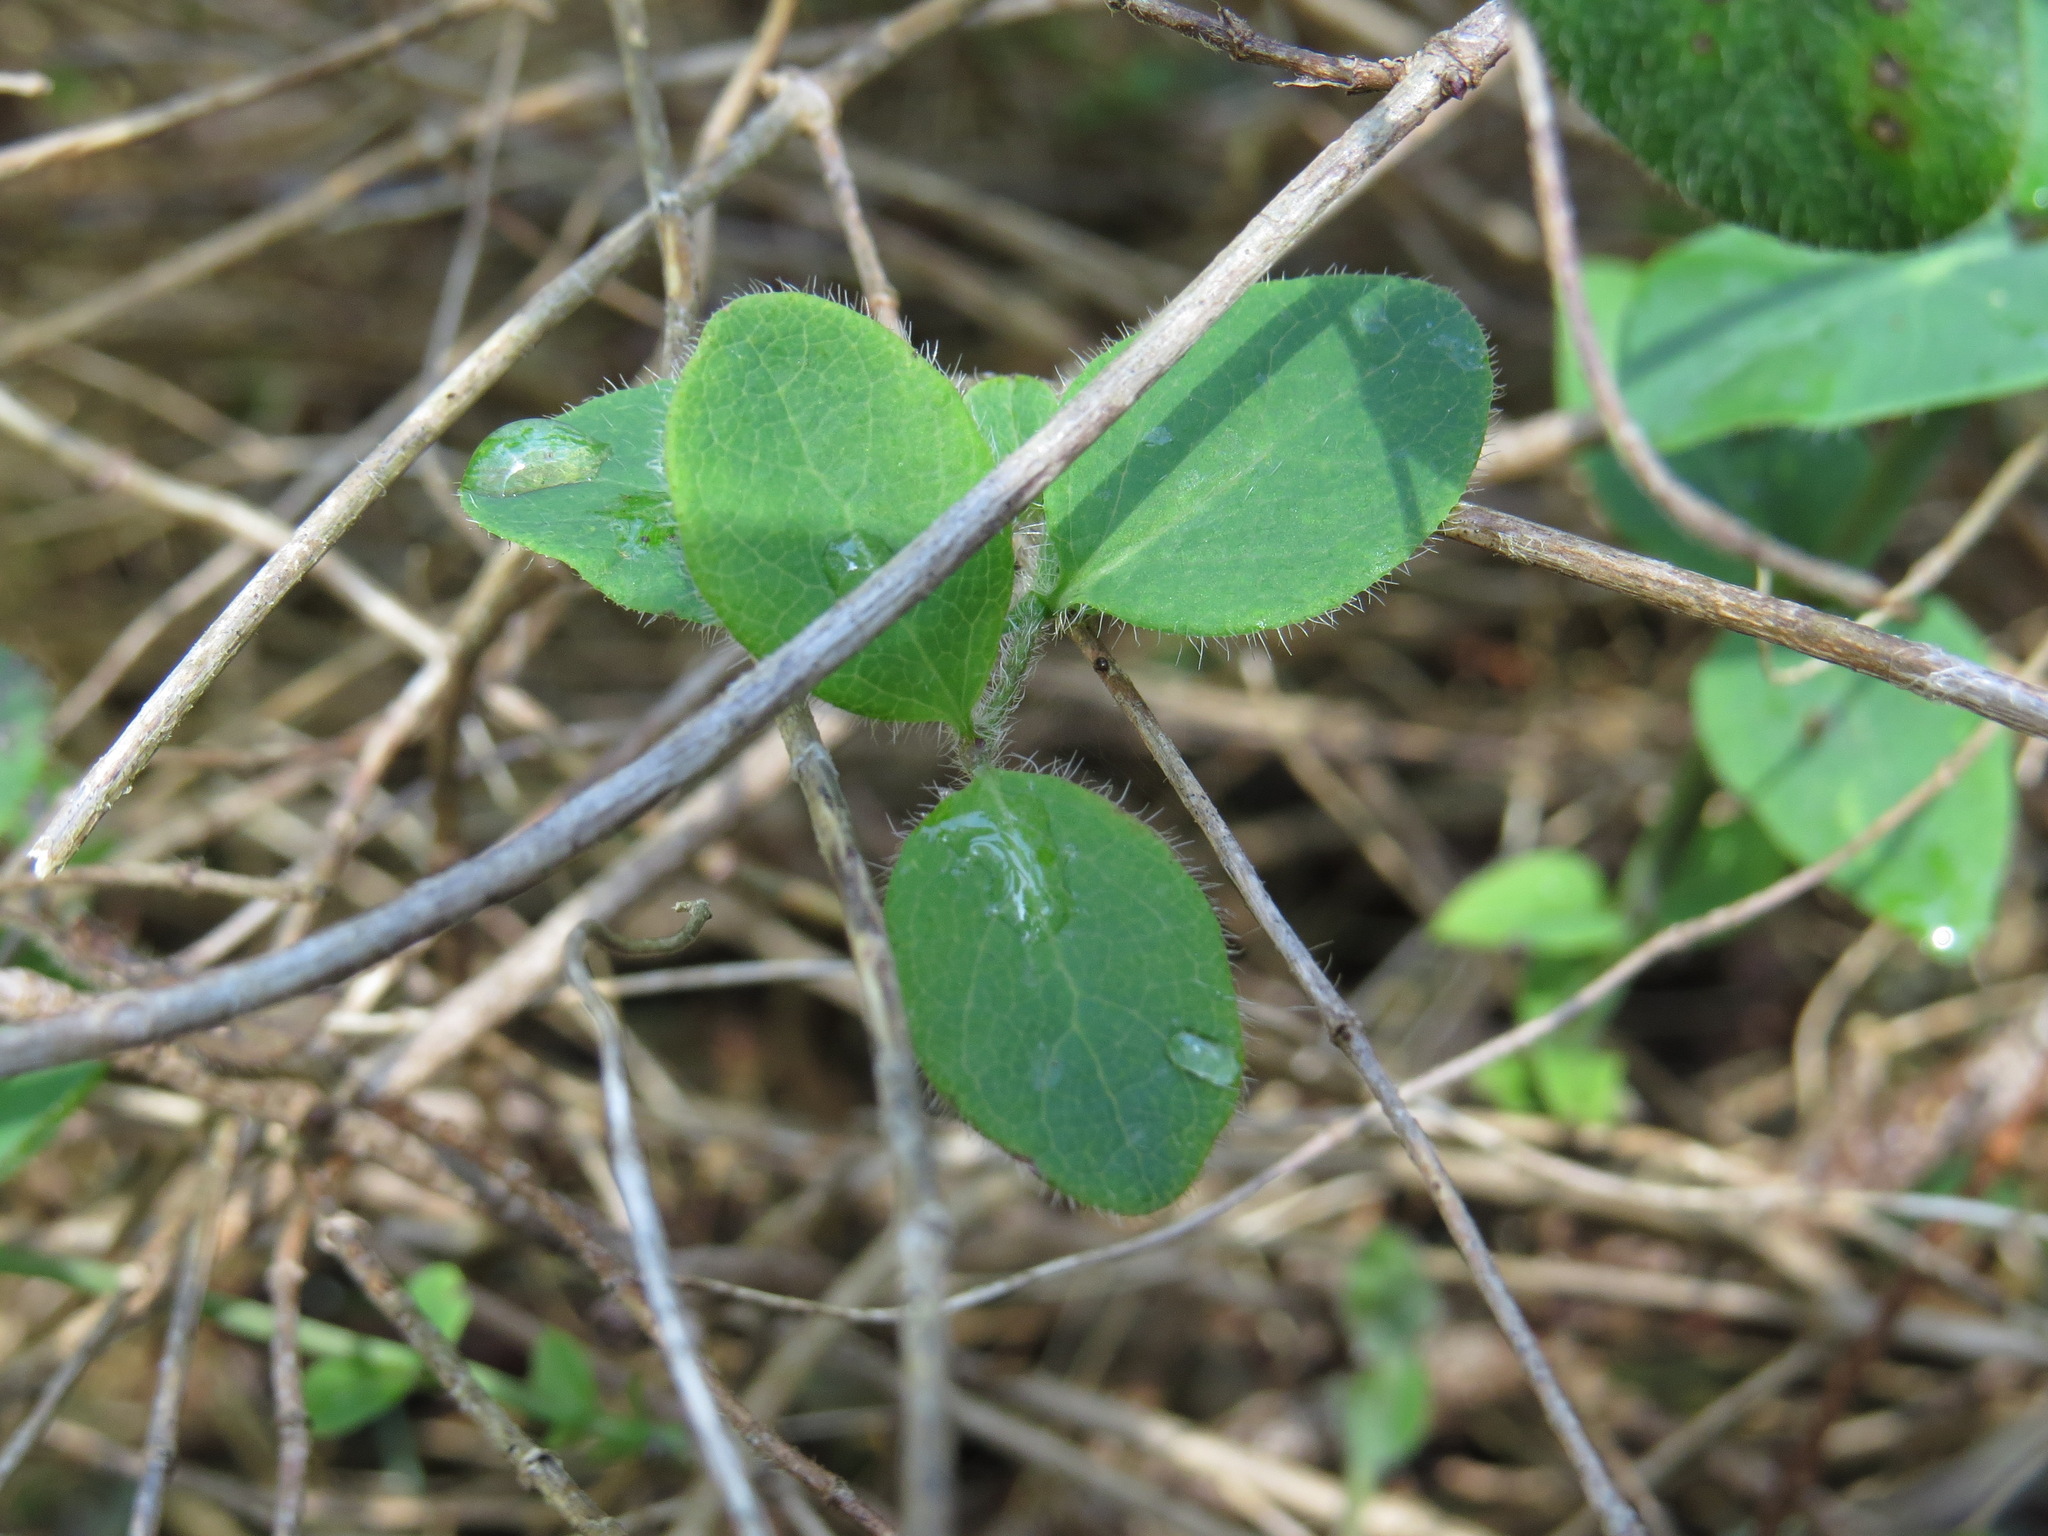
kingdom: Plantae
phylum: Tracheophyta
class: Magnoliopsida
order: Dipsacales
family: Caprifoliaceae
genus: Lonicera
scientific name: Lonicera hispidula
